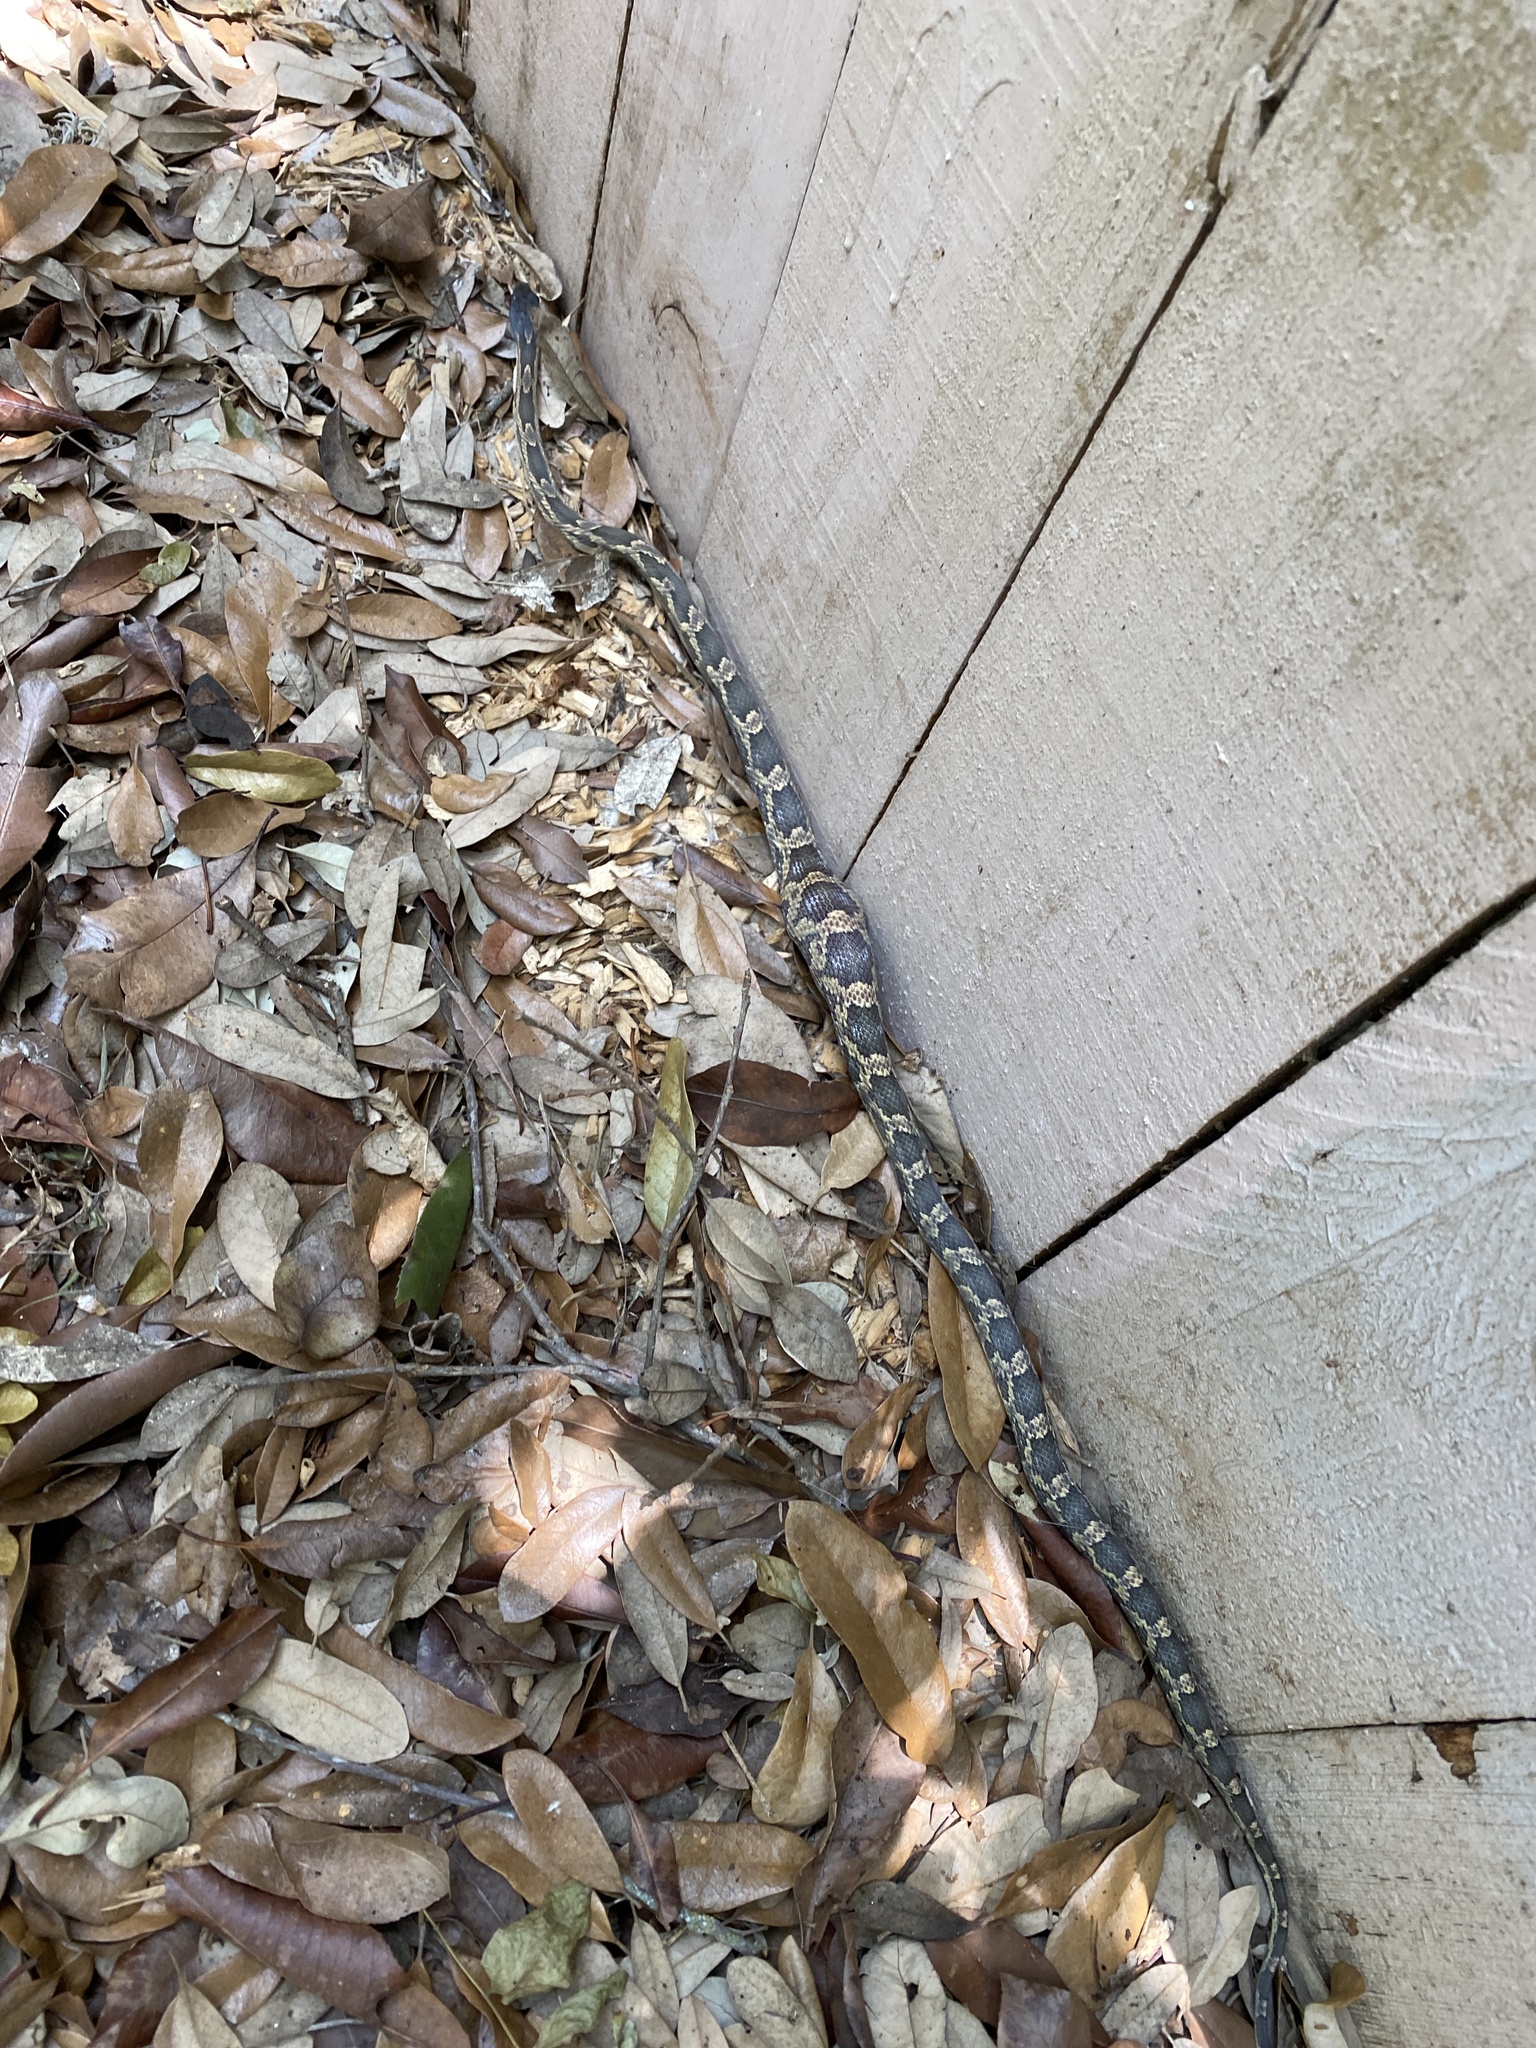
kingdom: Animalia
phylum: Chordata
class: Squamata
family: Colubridae
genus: Pantherophis
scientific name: Pantherophis obsoletus
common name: Black rat snake
